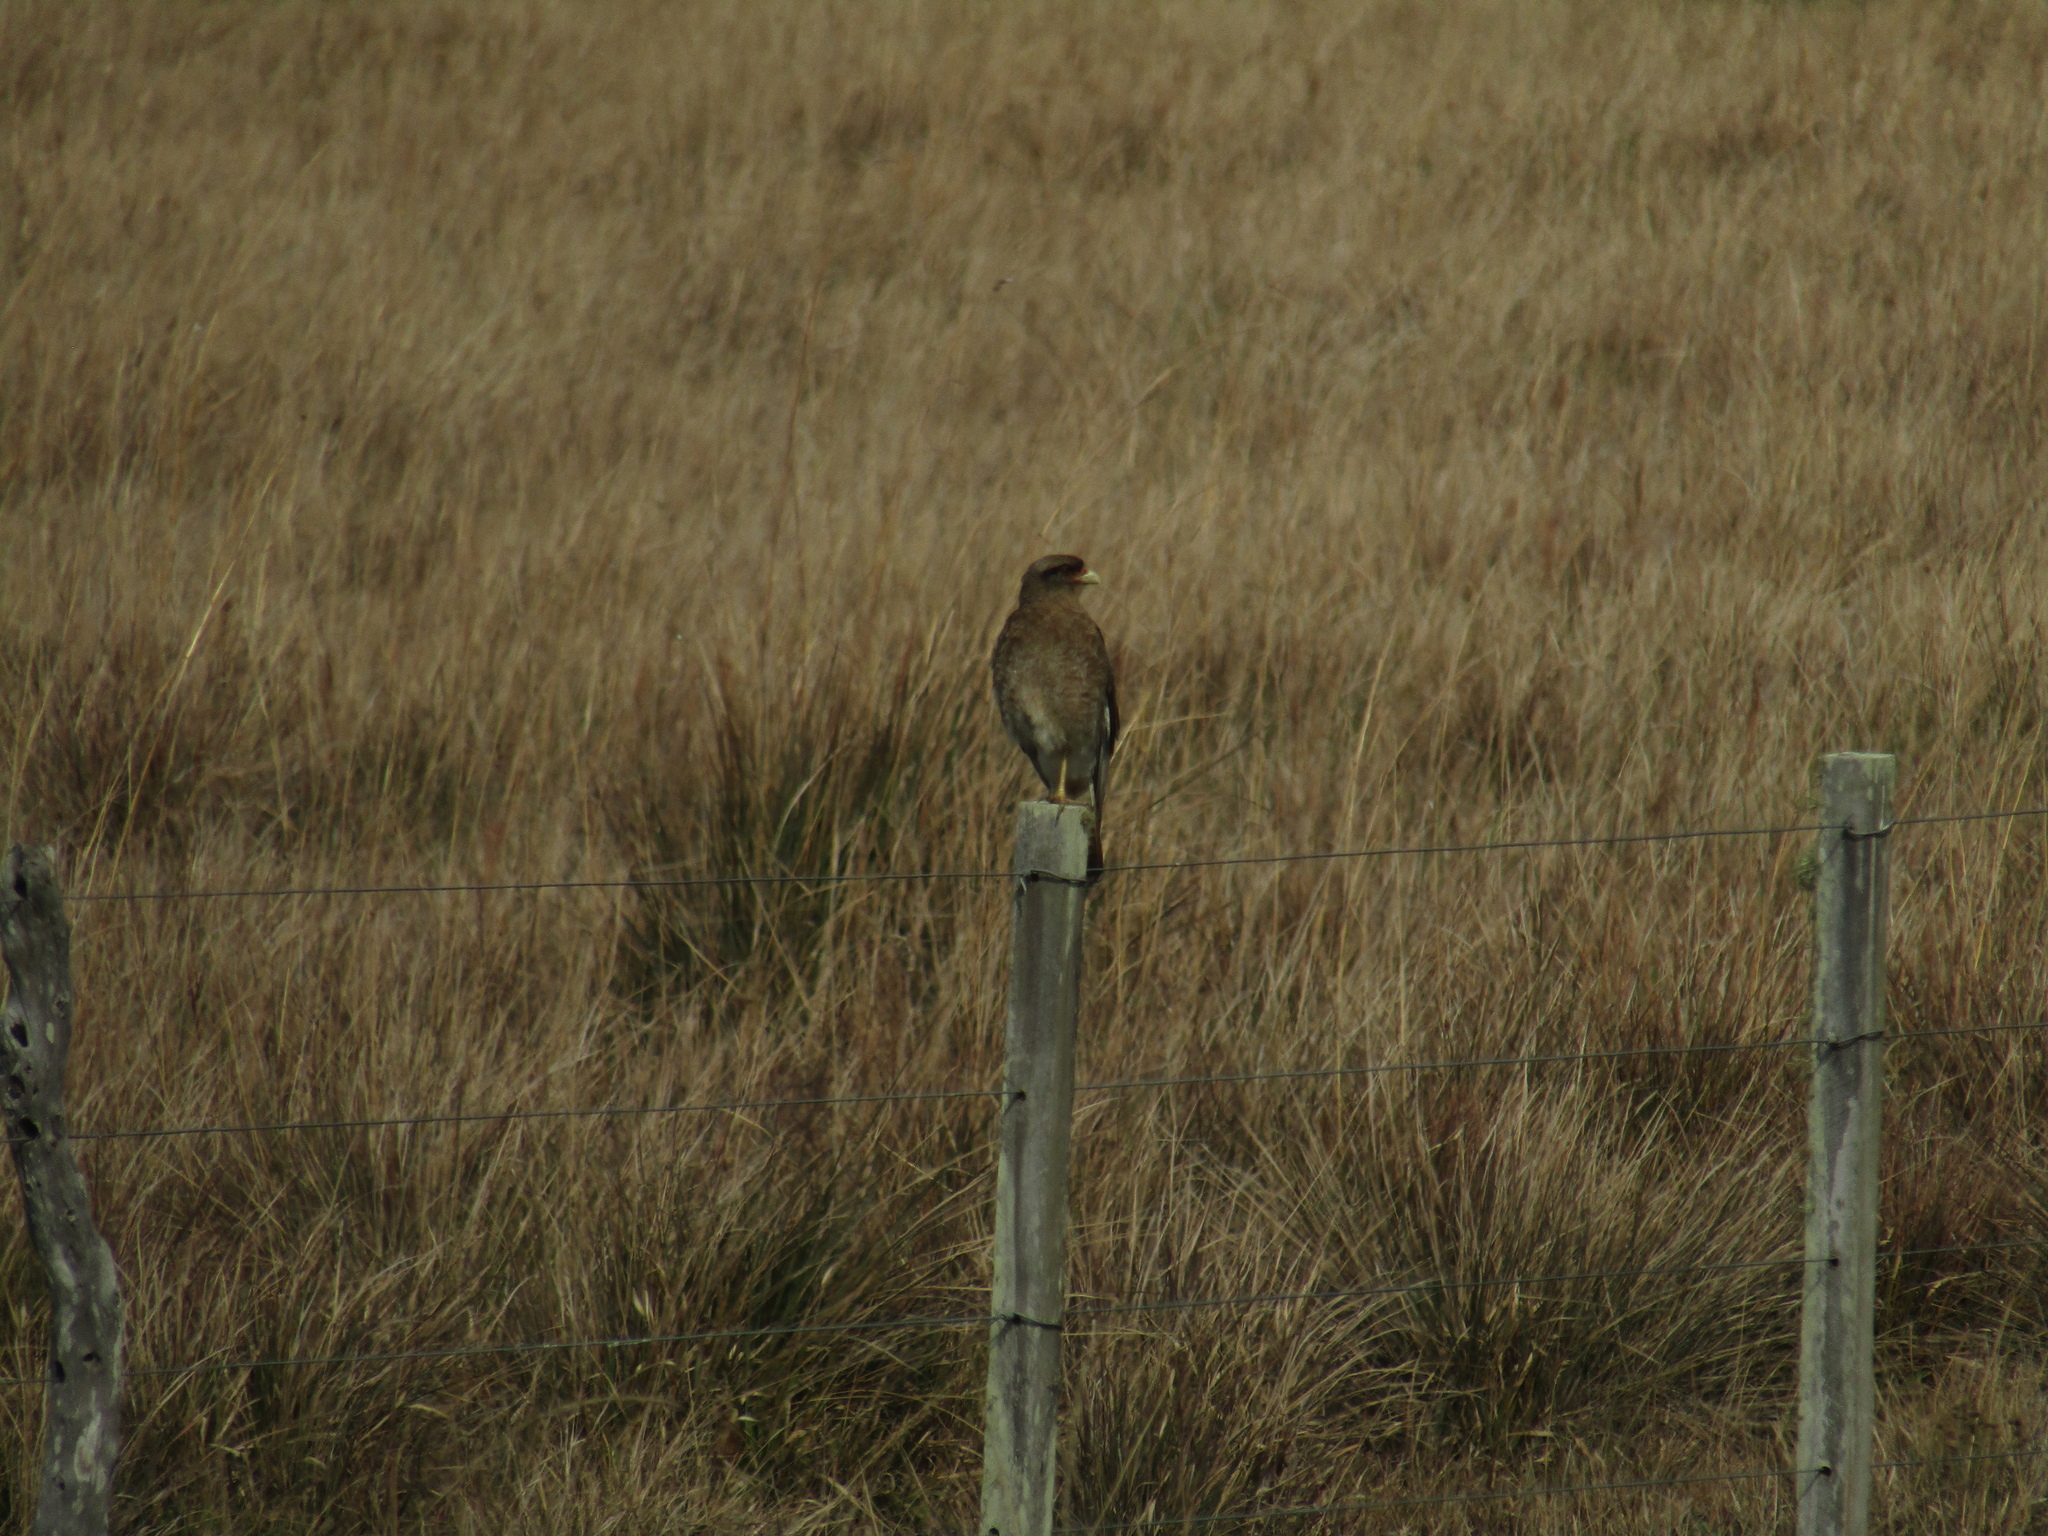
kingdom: Animalia
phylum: Chordata
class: Aves
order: Falconiformes
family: Falconidae
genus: Daptrius
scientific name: Daptrius
